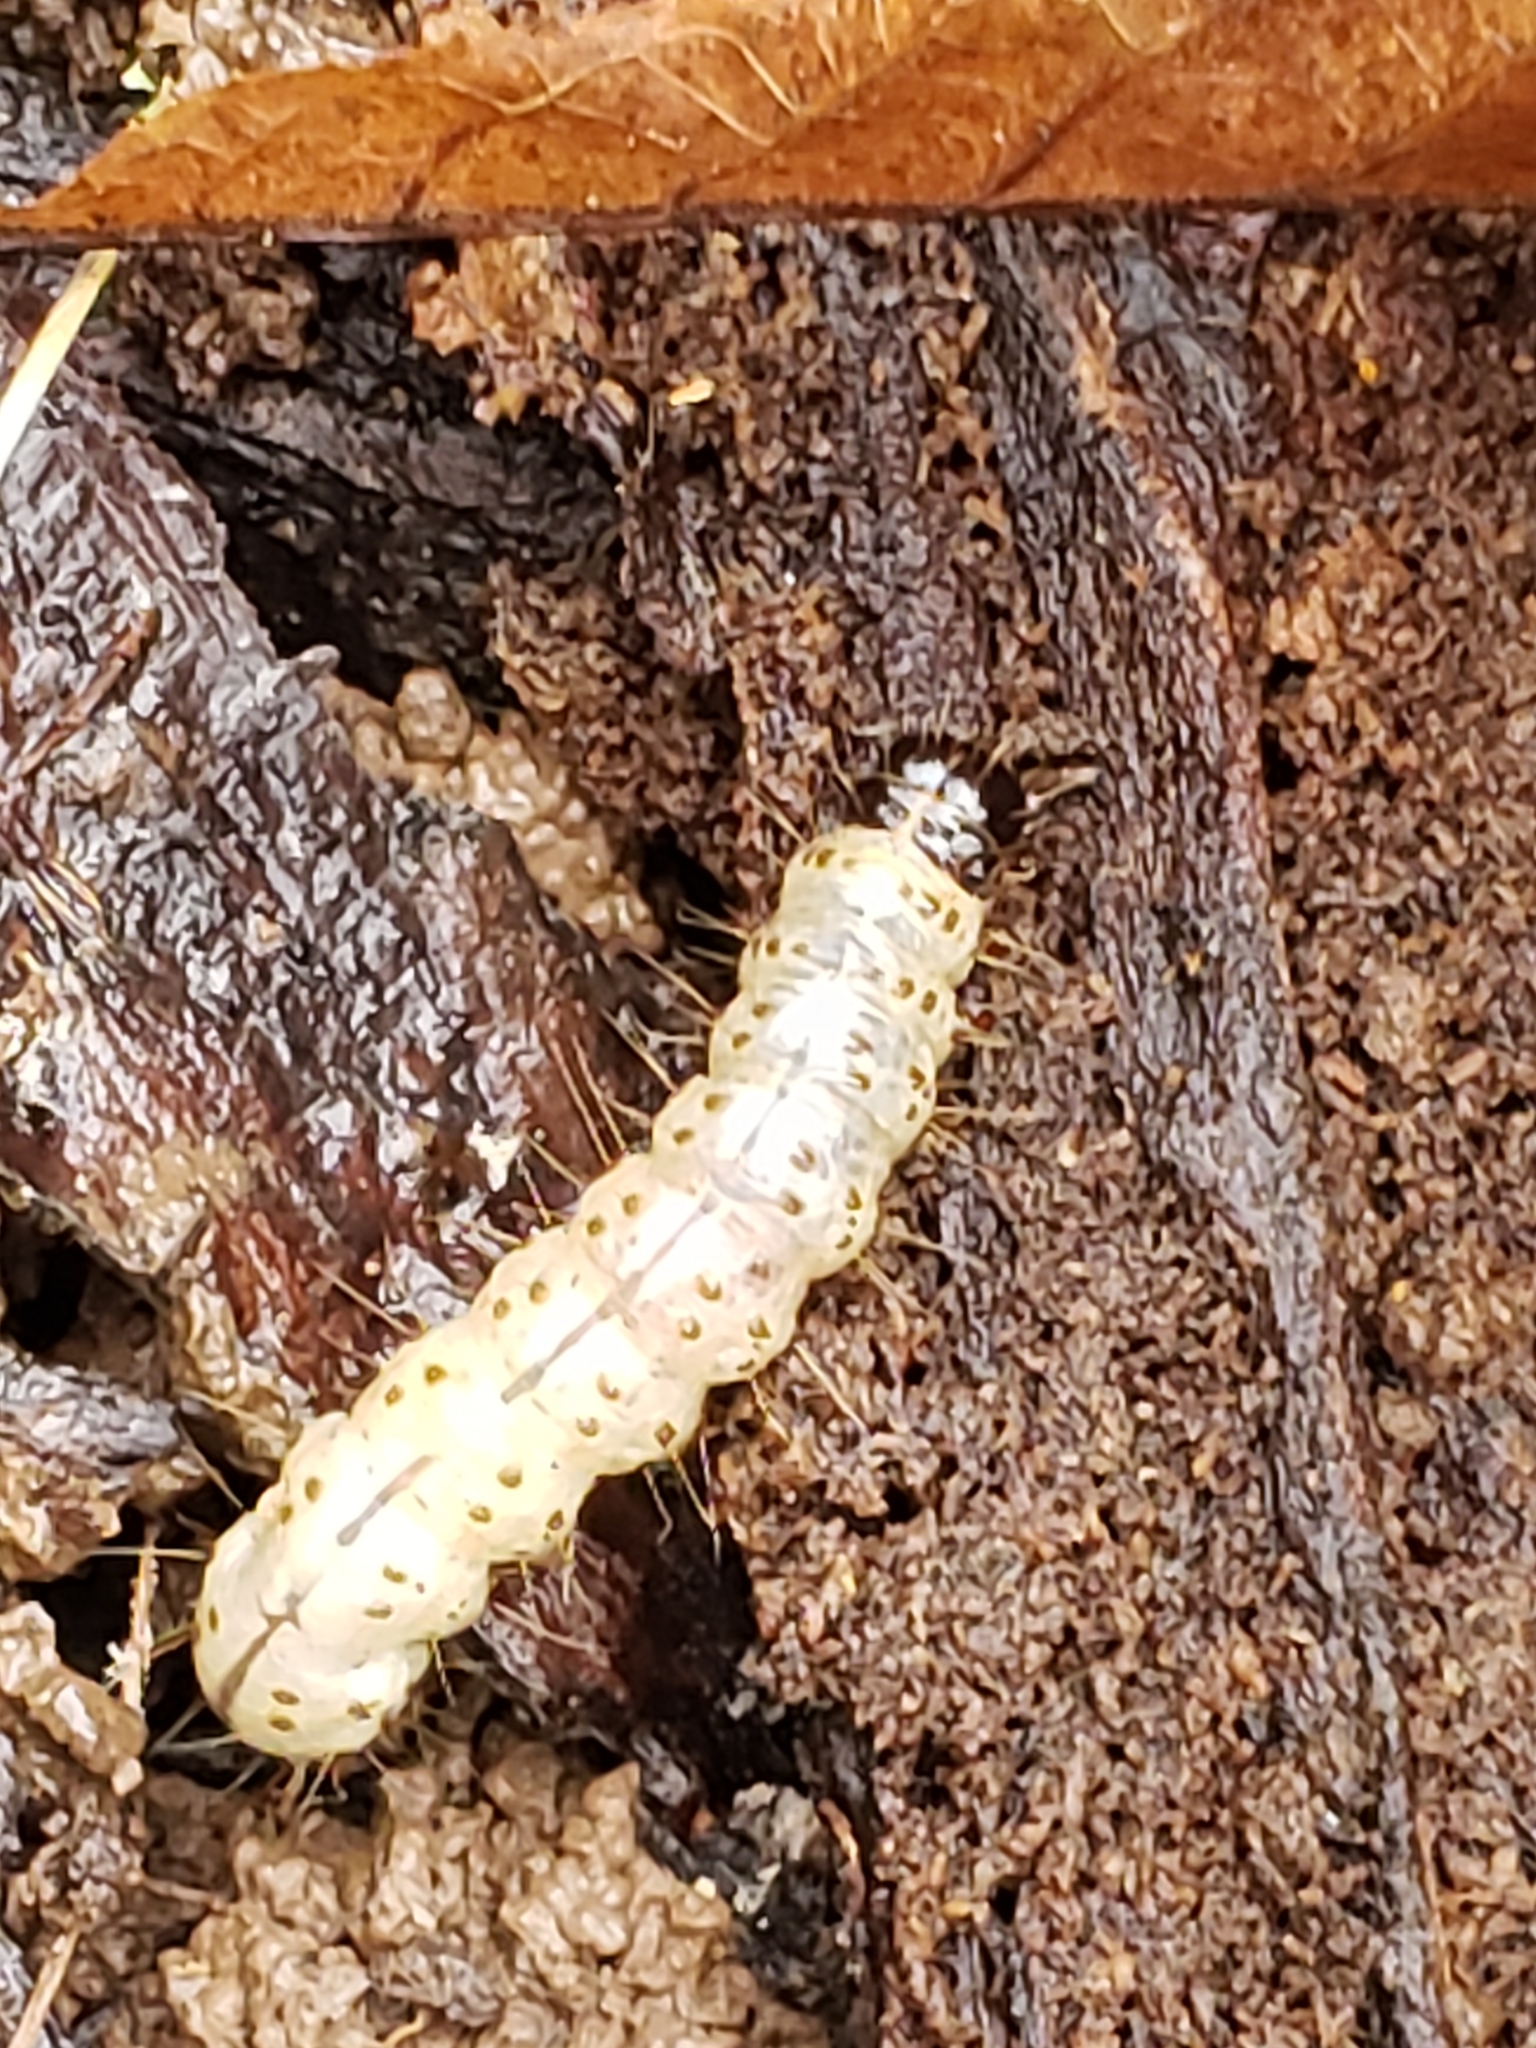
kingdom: Animalia
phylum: Arthropoda
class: Insecta
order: Lepidoptera
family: Erebidae
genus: Scolecocampa
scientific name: Scolecocampa liburna
